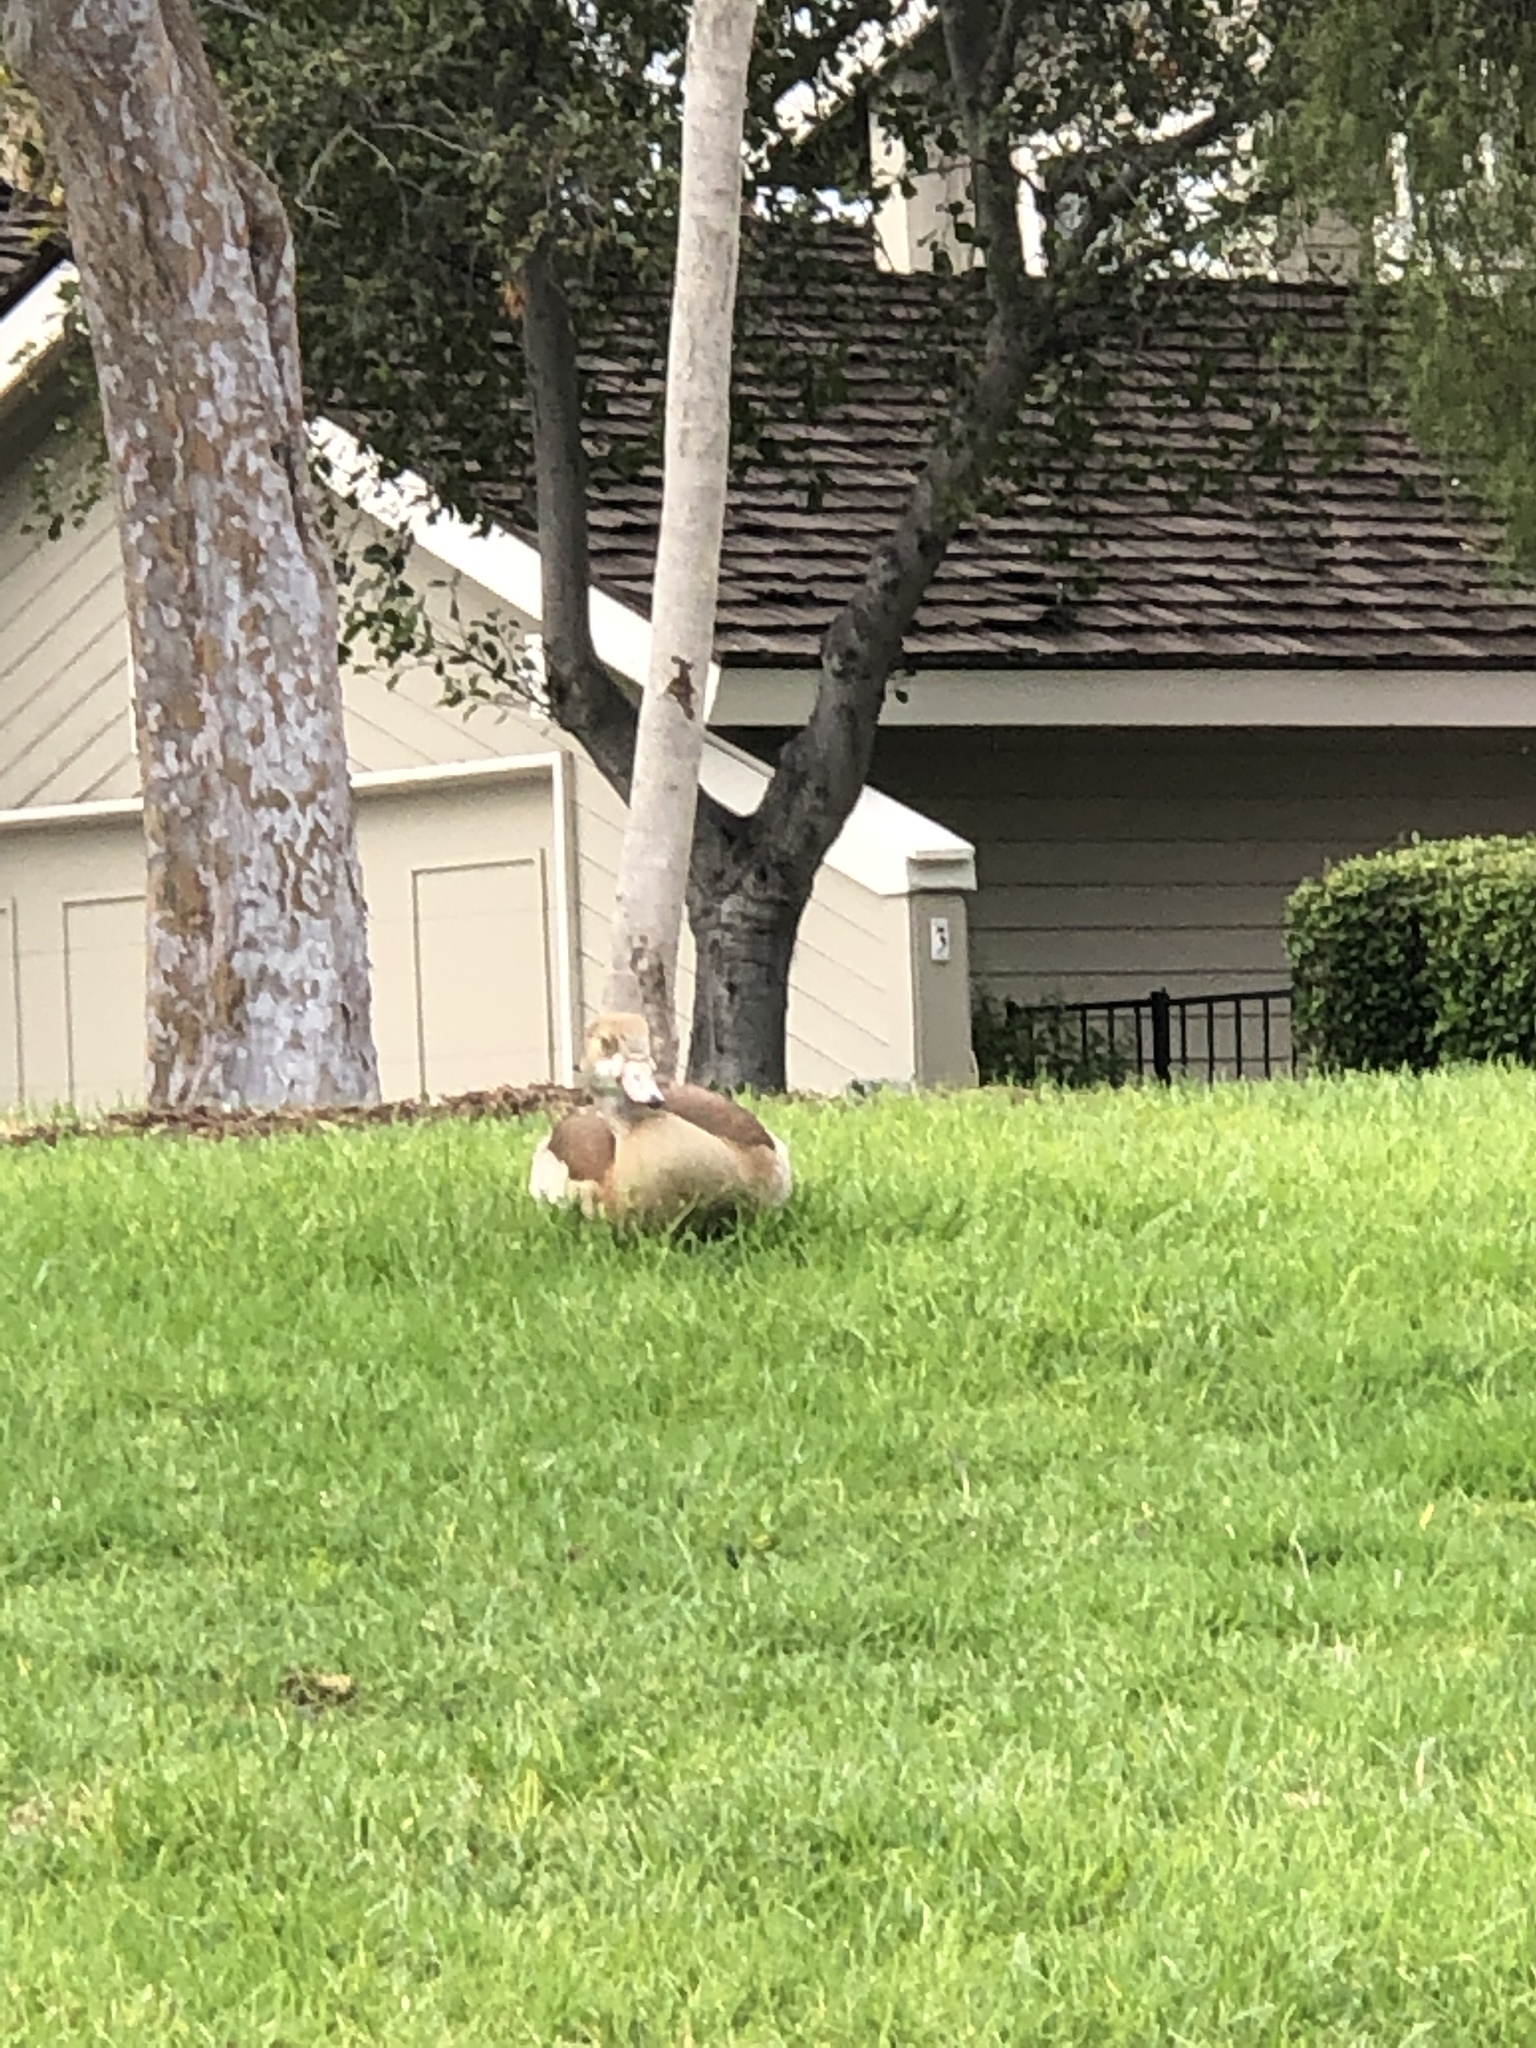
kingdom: Animalia
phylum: Chordata
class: Aves
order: Anseriformes
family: Anatidae
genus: Alopochen
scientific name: Alopochen aegyptiaca
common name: Egyptian goose
